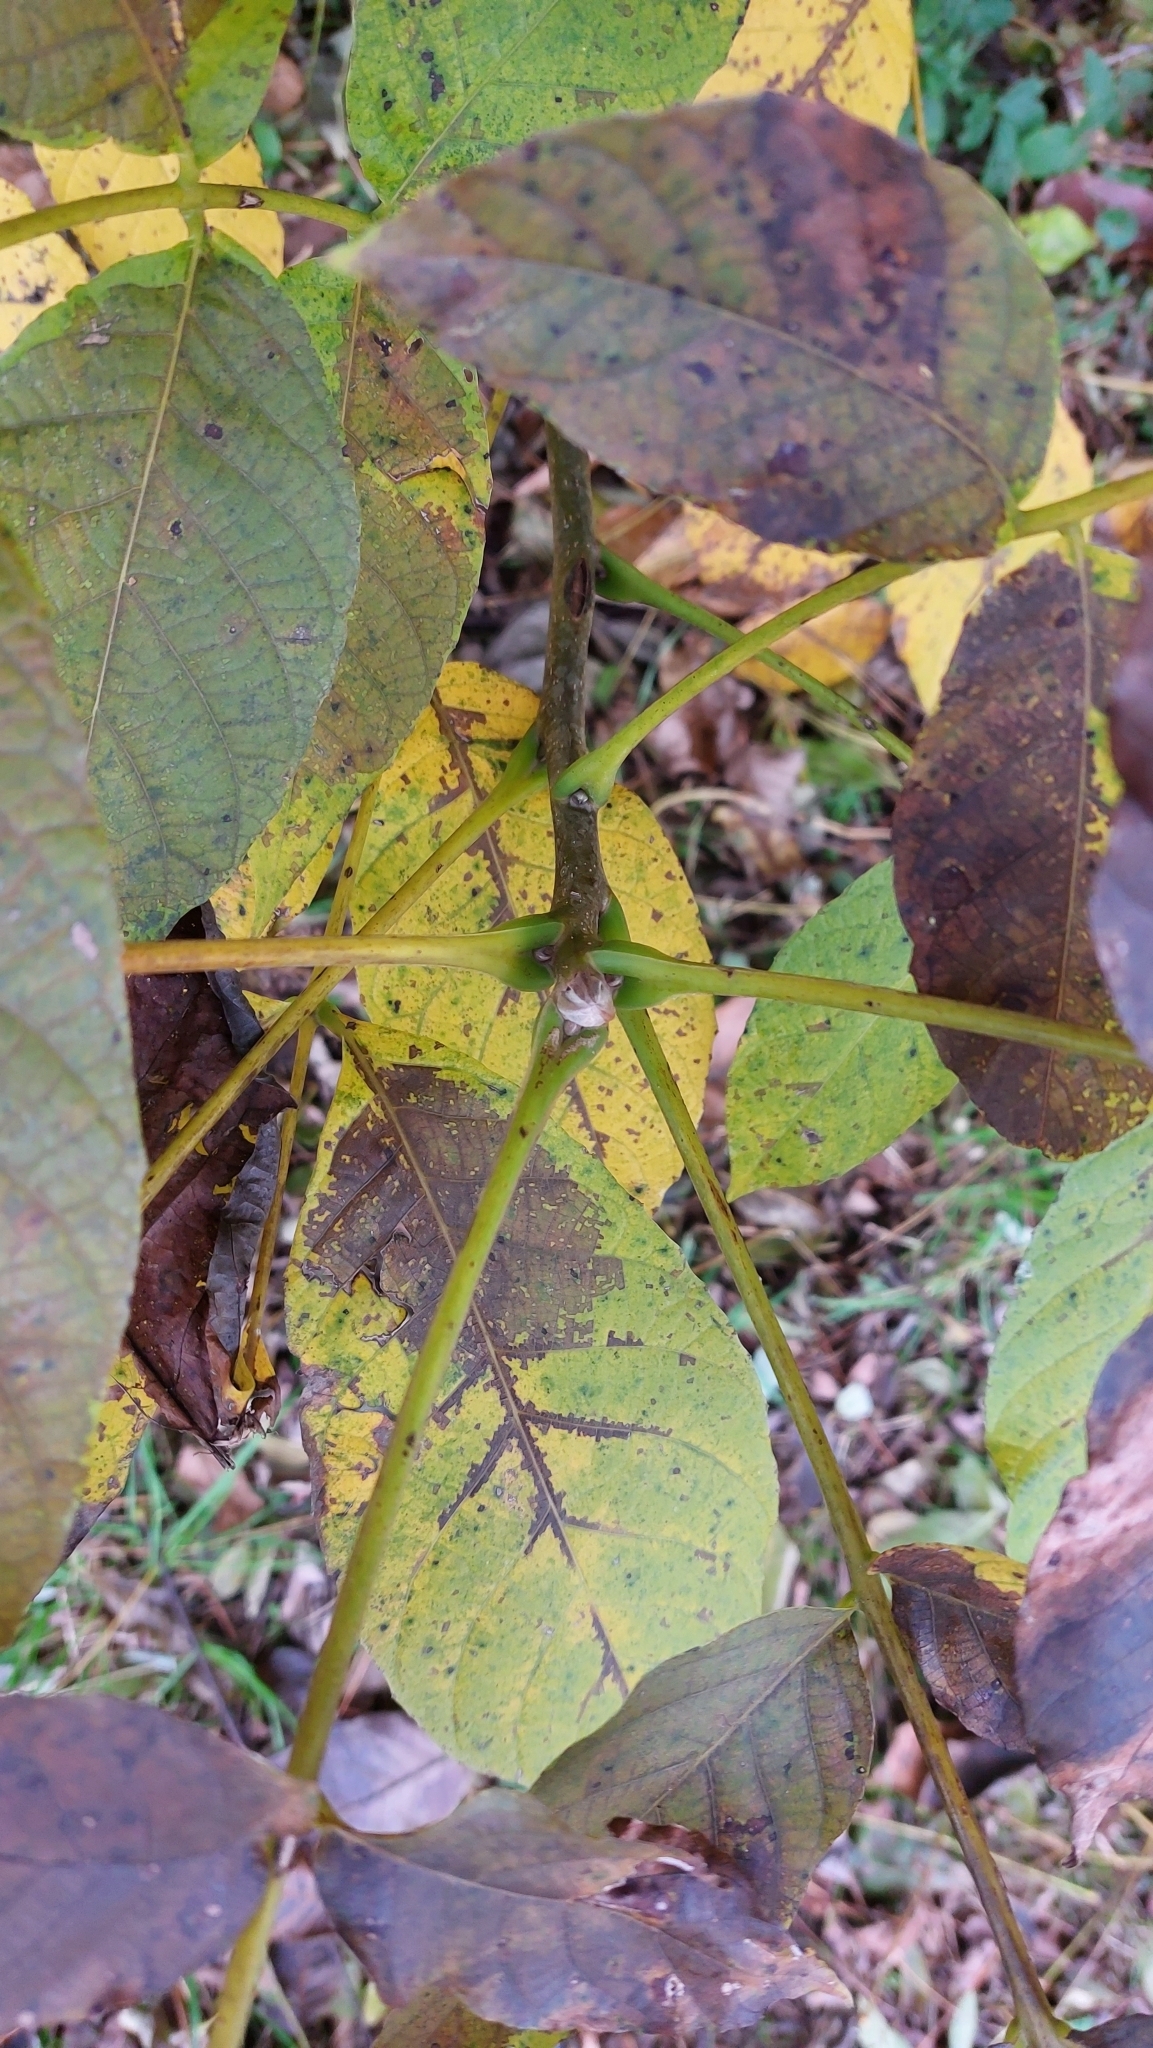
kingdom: Plantae
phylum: Tracheophyta
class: Magnoliopsida
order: Fagales
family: Juglandaceae
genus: Juglans
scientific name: Juglans regia
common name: Walnut
